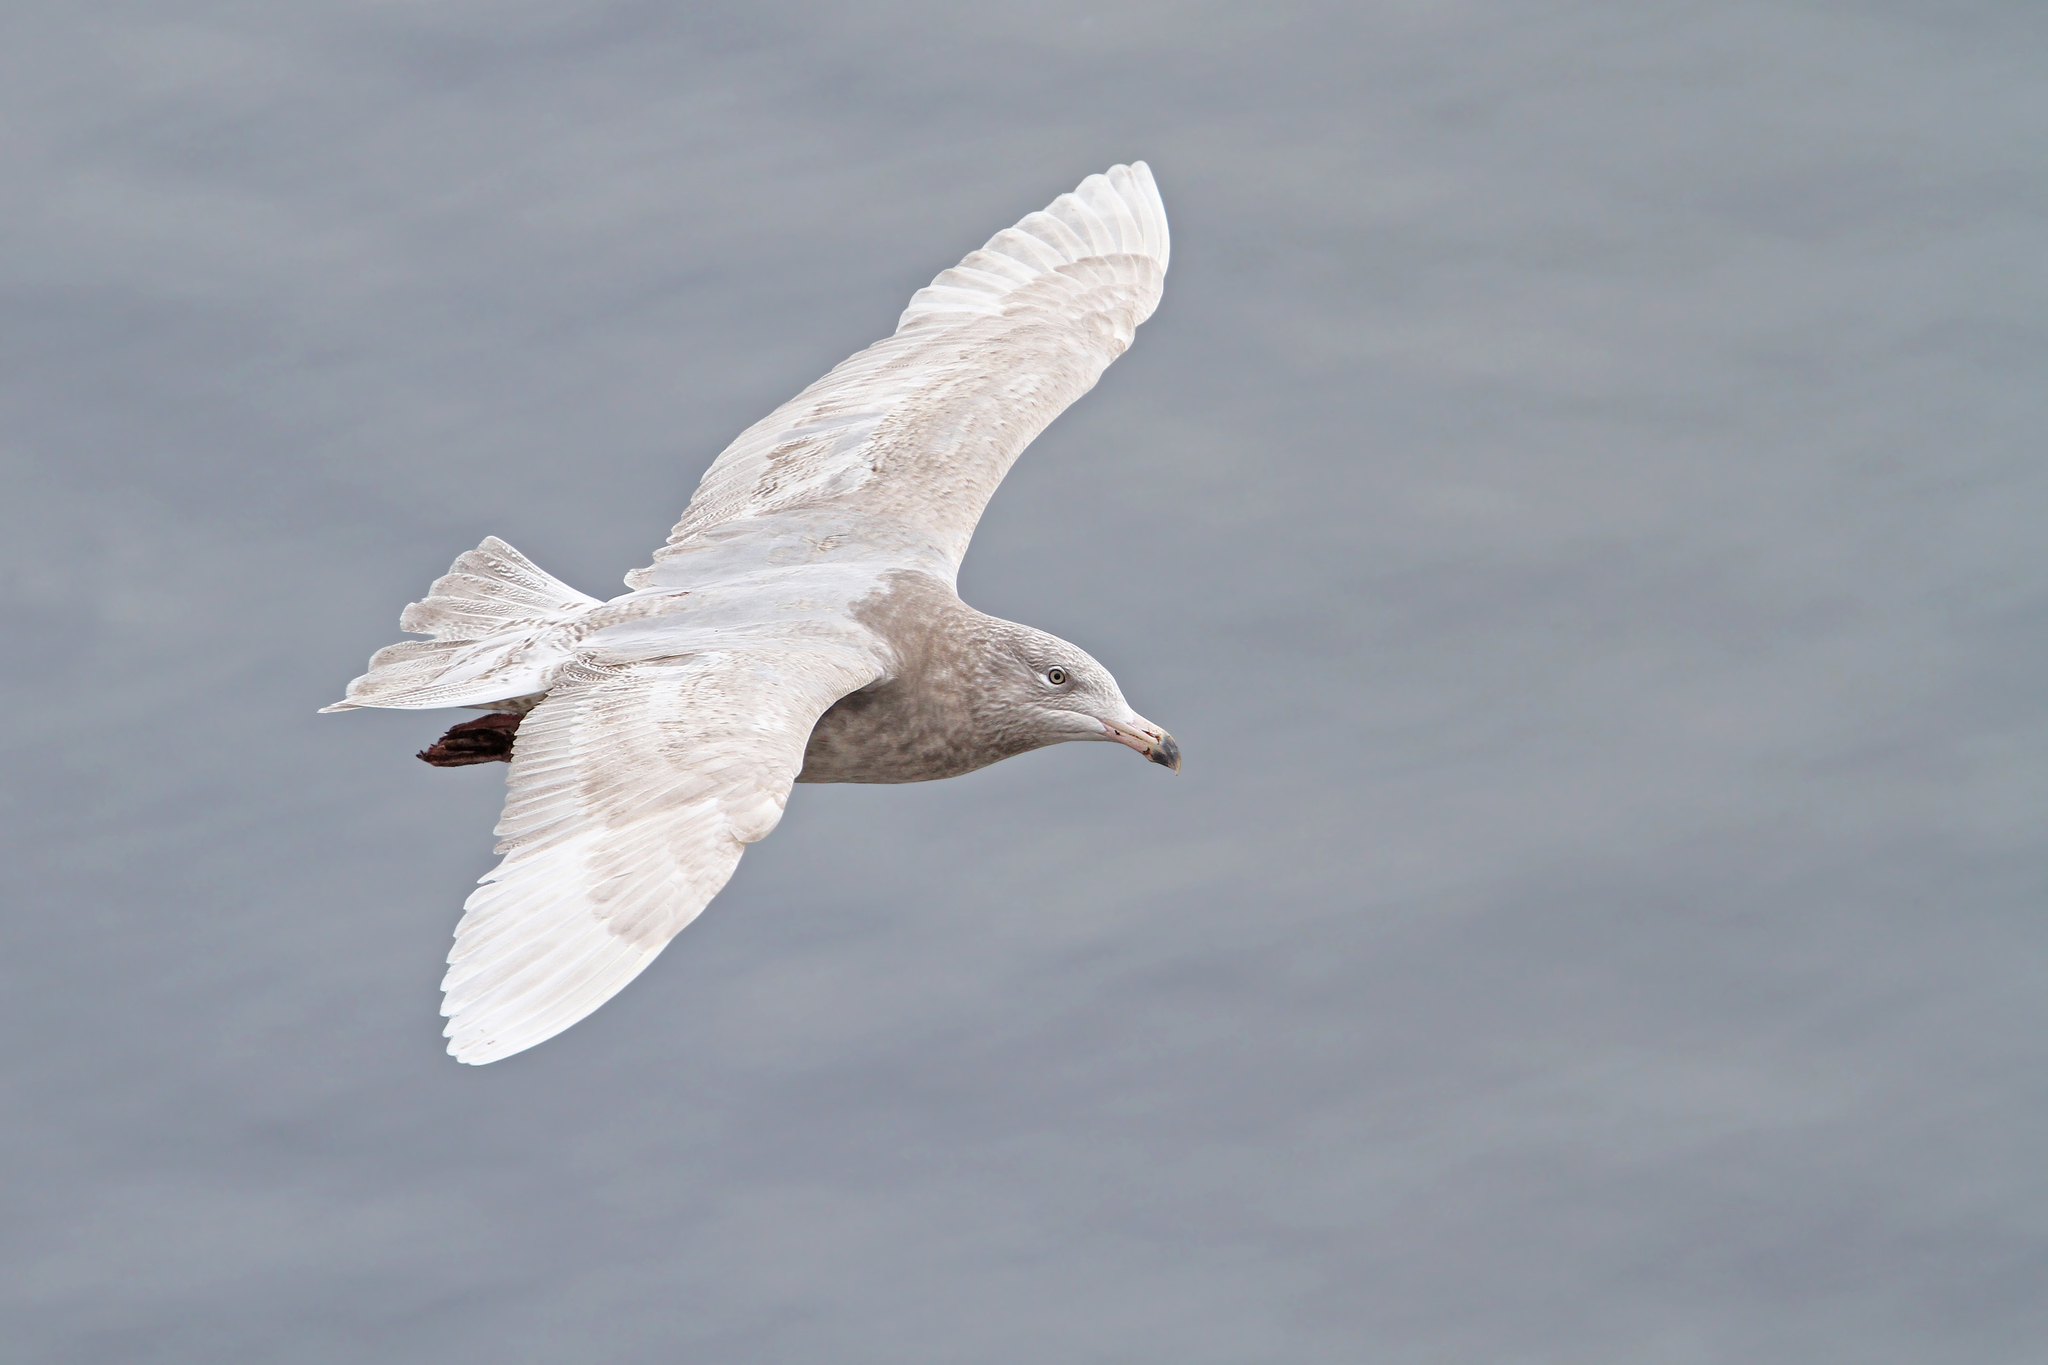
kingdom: Animalia
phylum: Chordata
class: Aves
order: Charadriiformes
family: Laridae
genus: Larus
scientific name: Larus hyperboreus
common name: Glaucous gull
